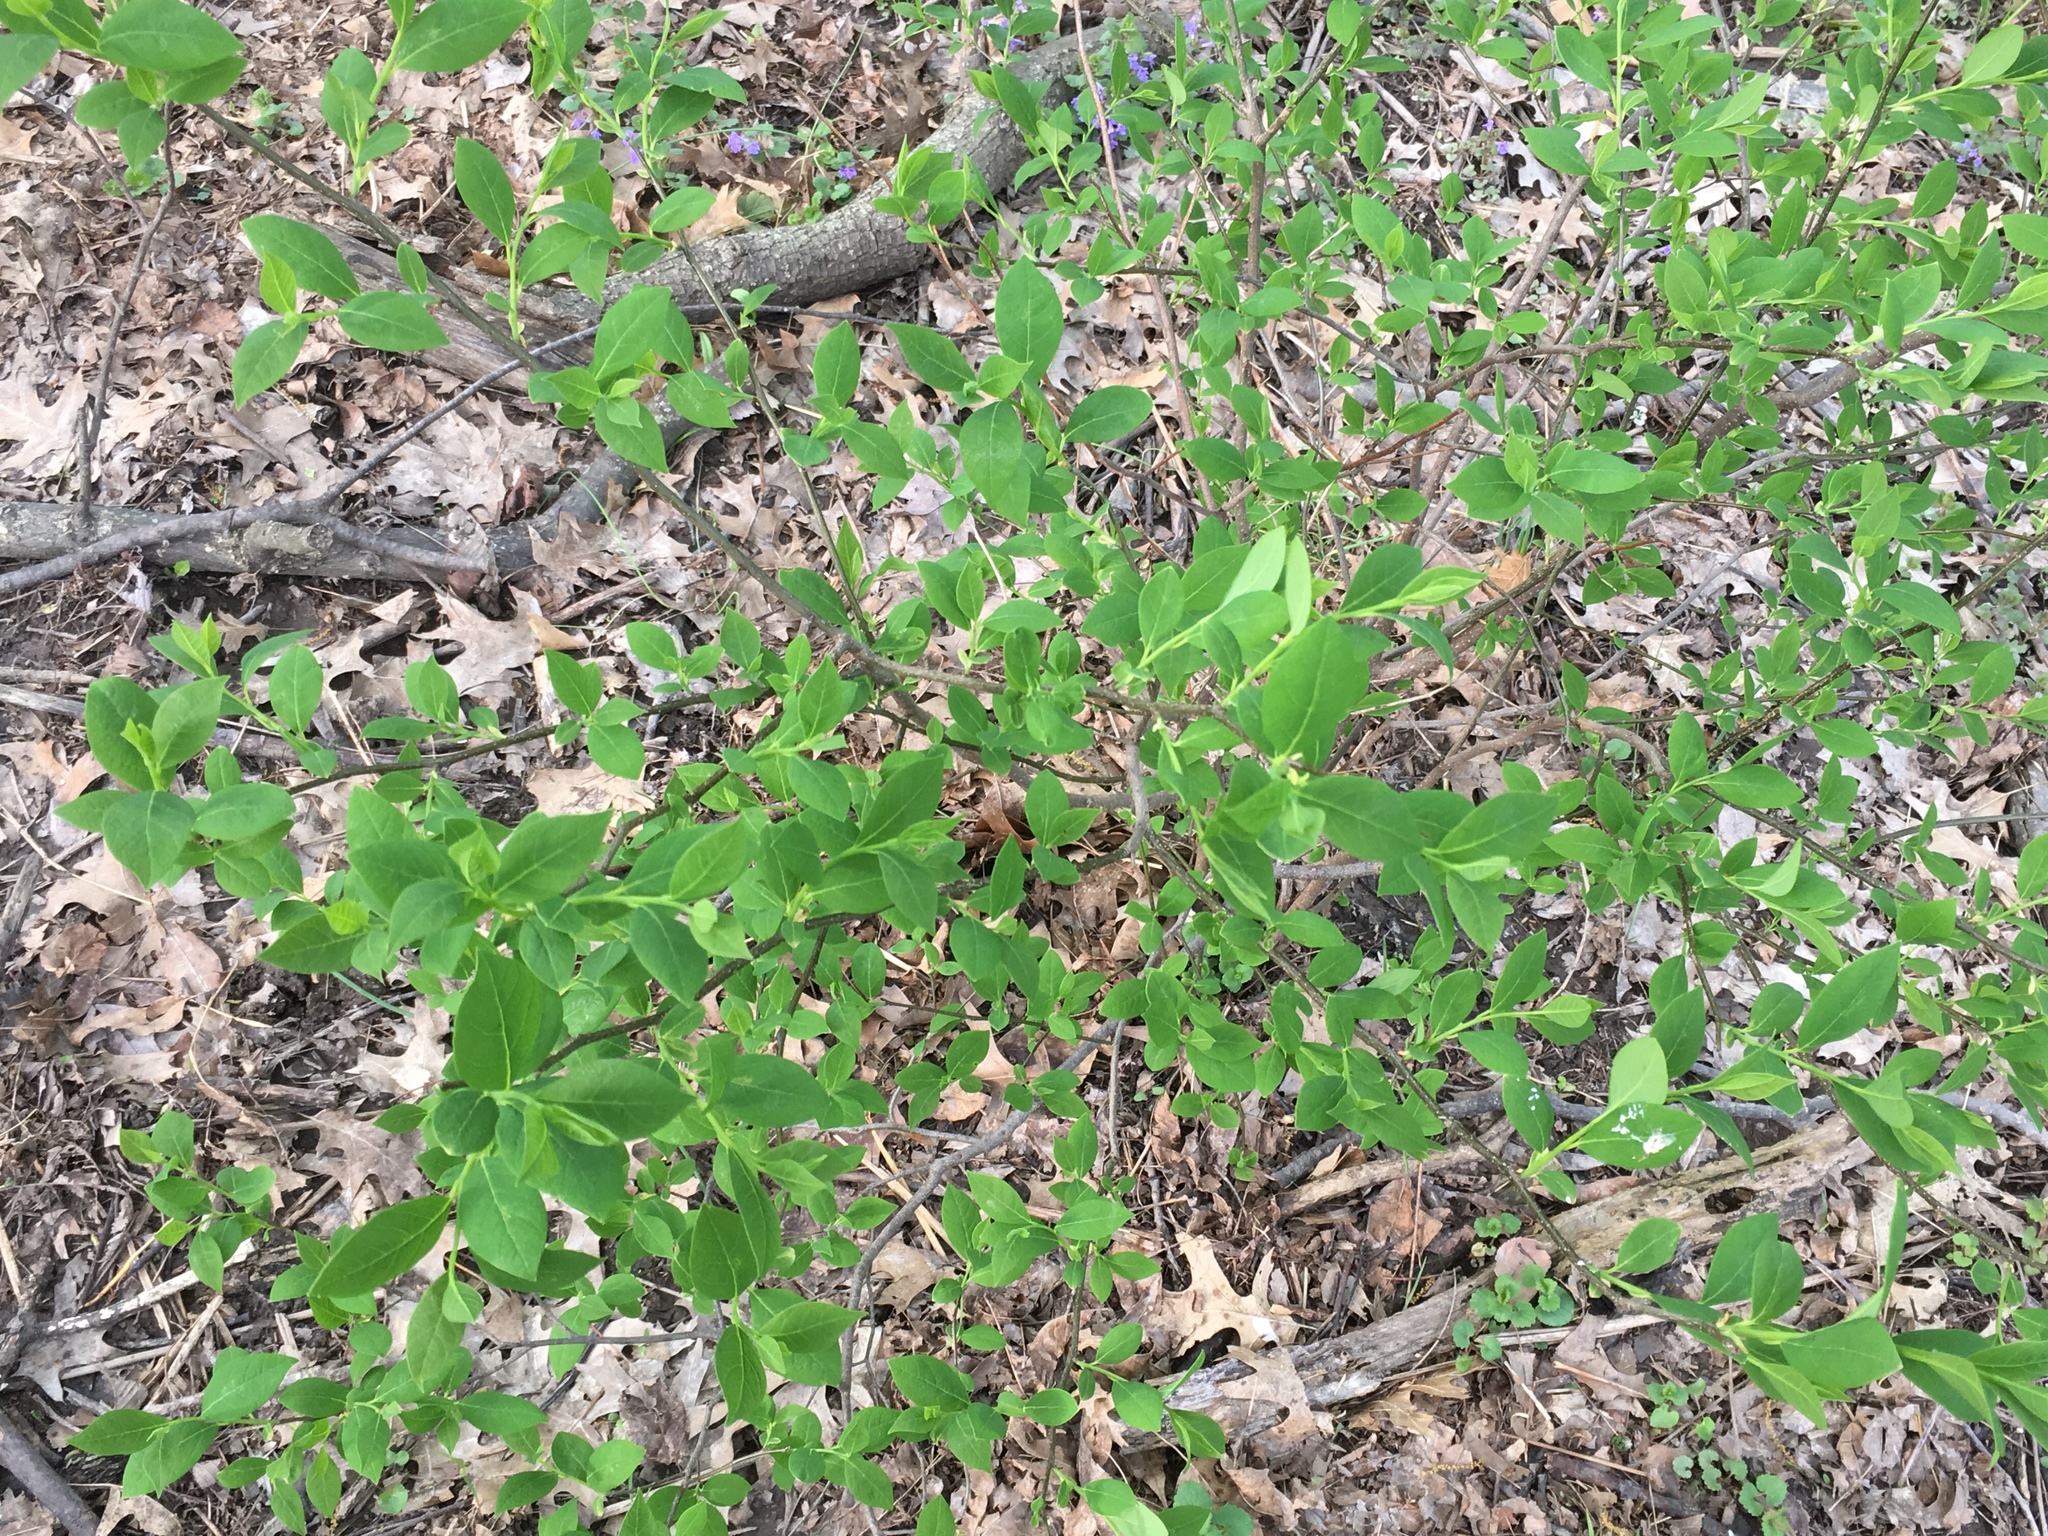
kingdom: Plantae
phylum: Tracheophyta
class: Magnoliopsida
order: Laurales
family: Lauraceae
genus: Lindera
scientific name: Lindera benzoin
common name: Spicebush
